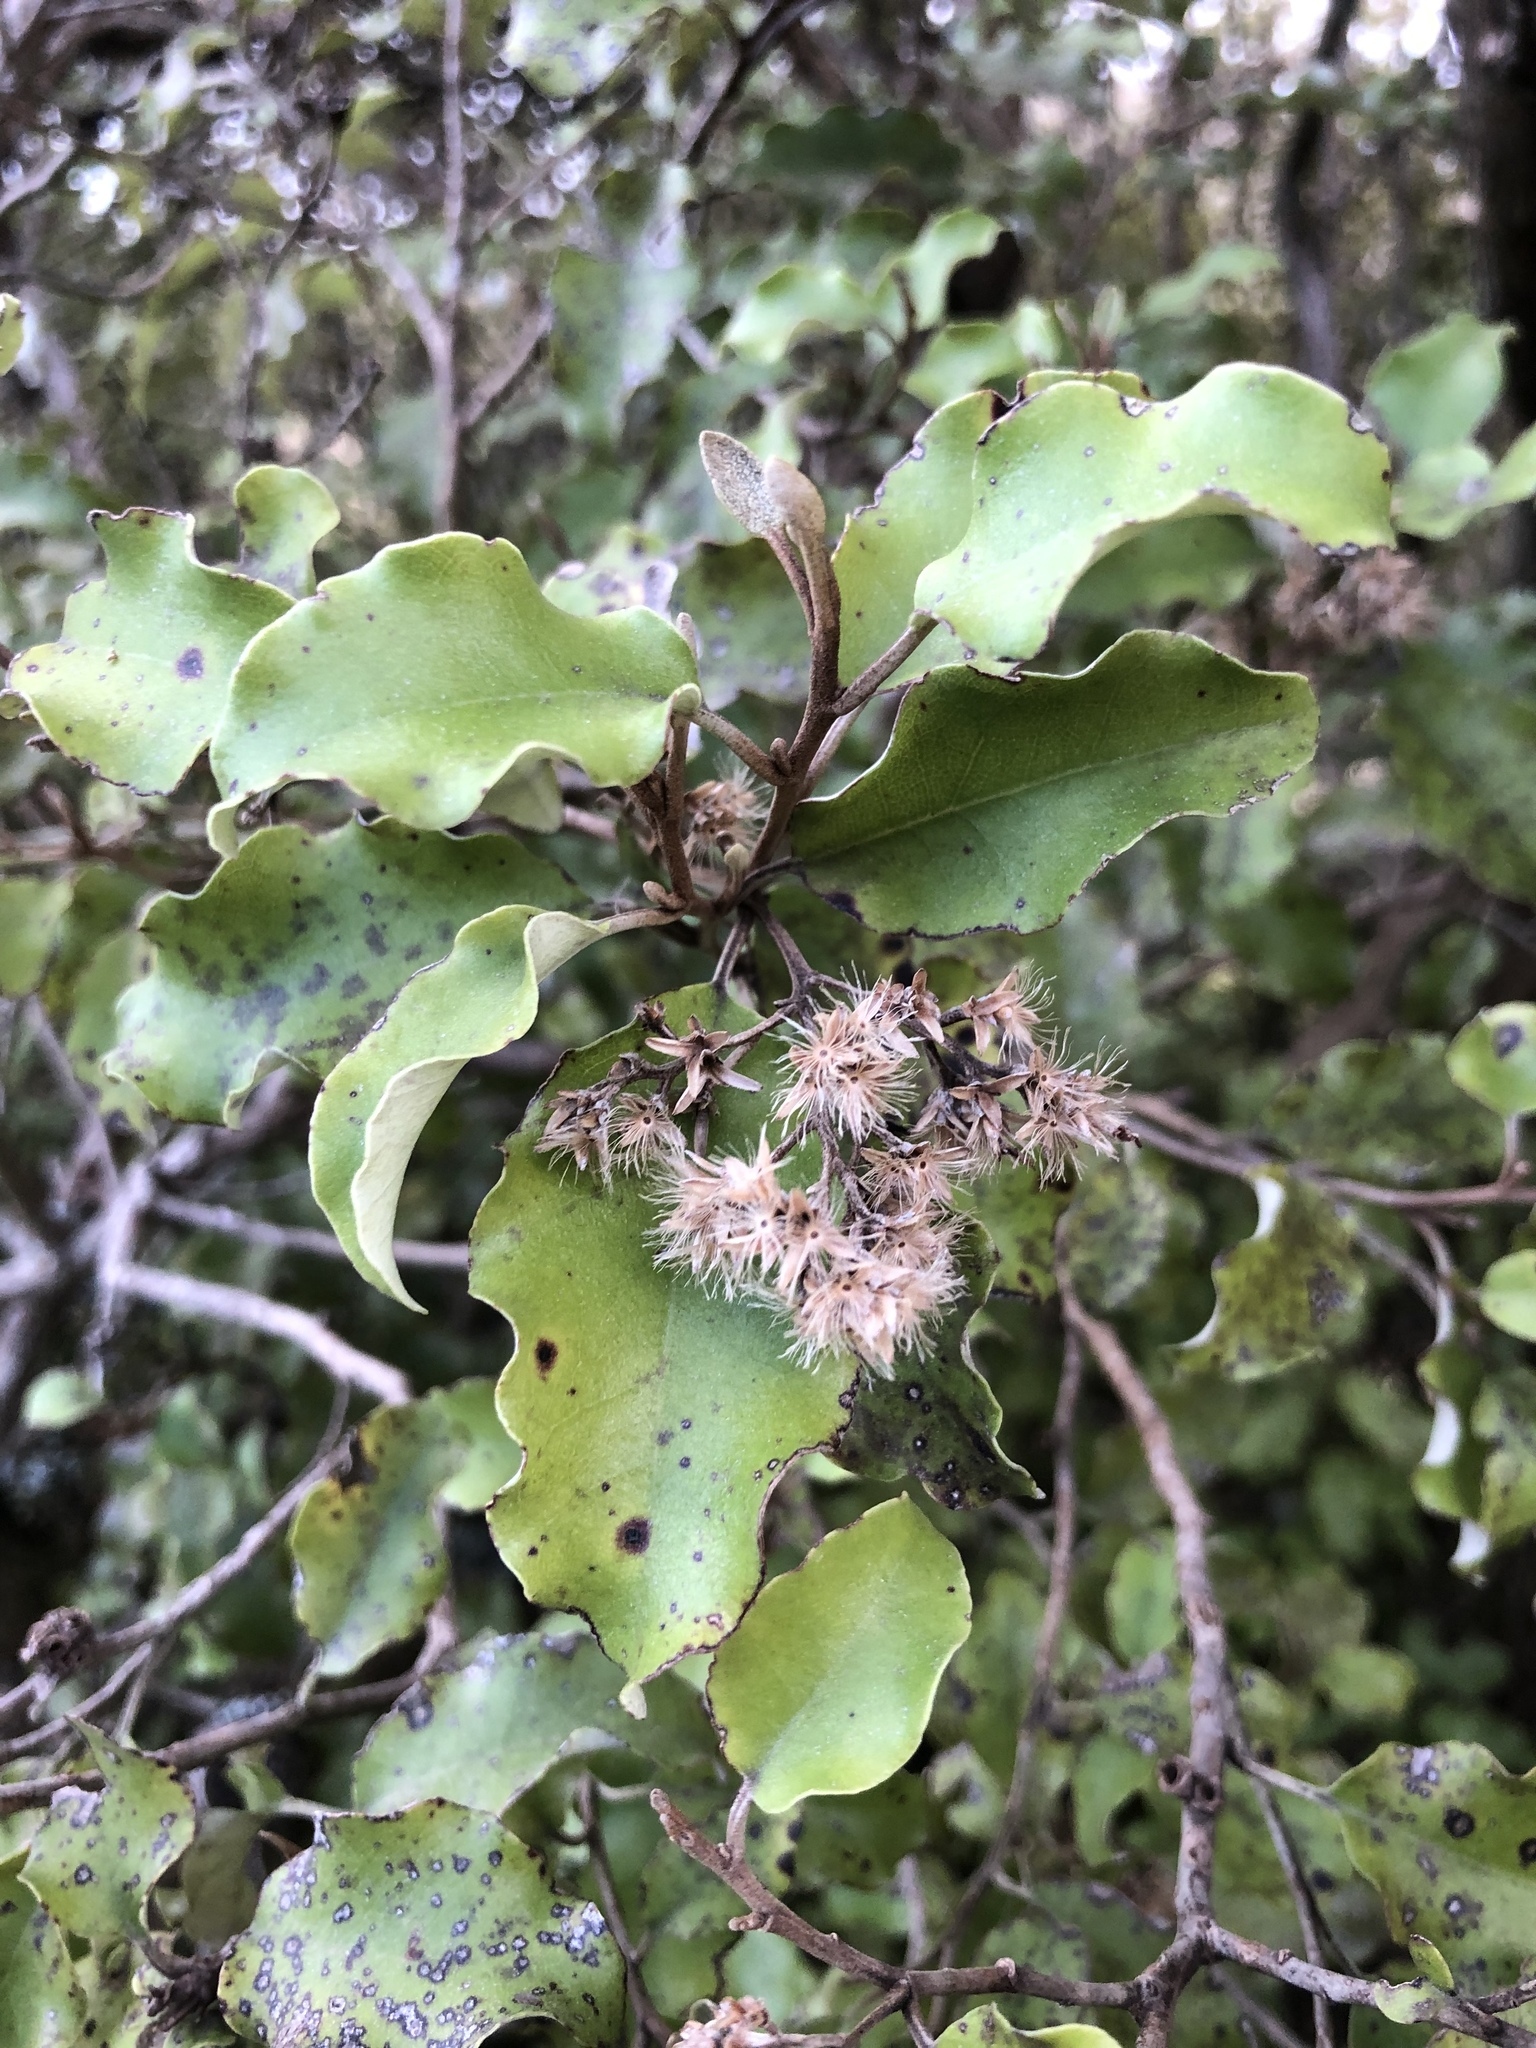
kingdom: Plantae
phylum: Tracheophyta
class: Magnoliopsida
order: Asterales
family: Asteraceae
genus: Olearia
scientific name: Olearia paniculata
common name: Akiraho
